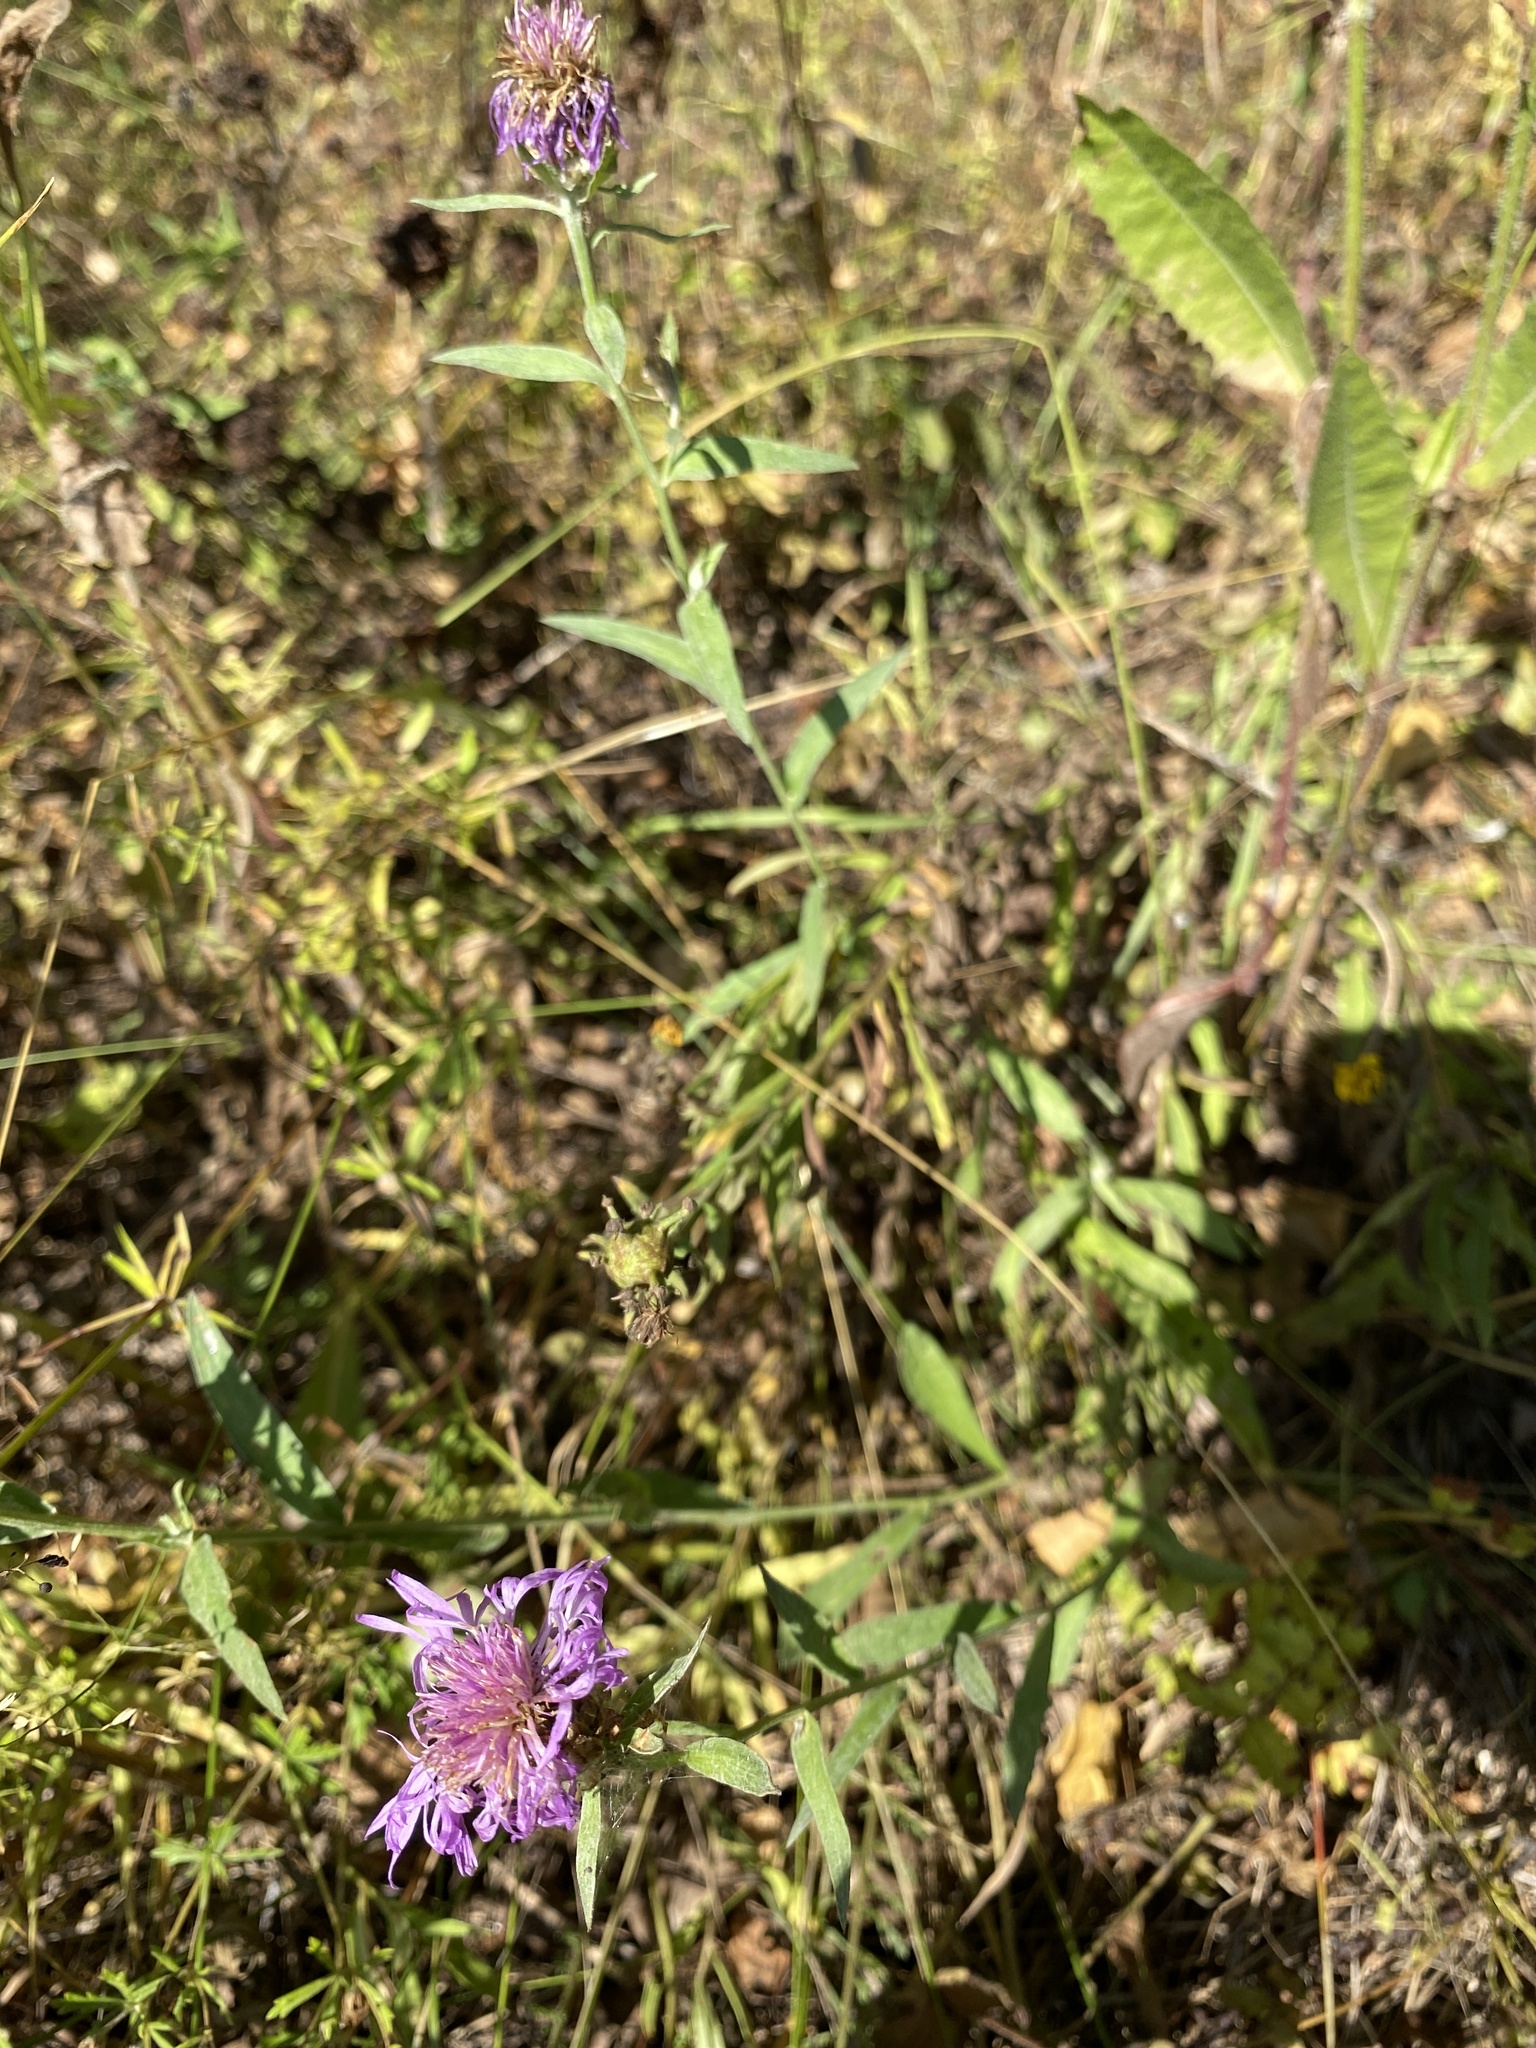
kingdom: Plantae
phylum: Tracheophyta
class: Magnoliopsida
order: Asterales
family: Asteraceae
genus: Centaurea
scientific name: Centaurea jacea
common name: Brown knapweed
